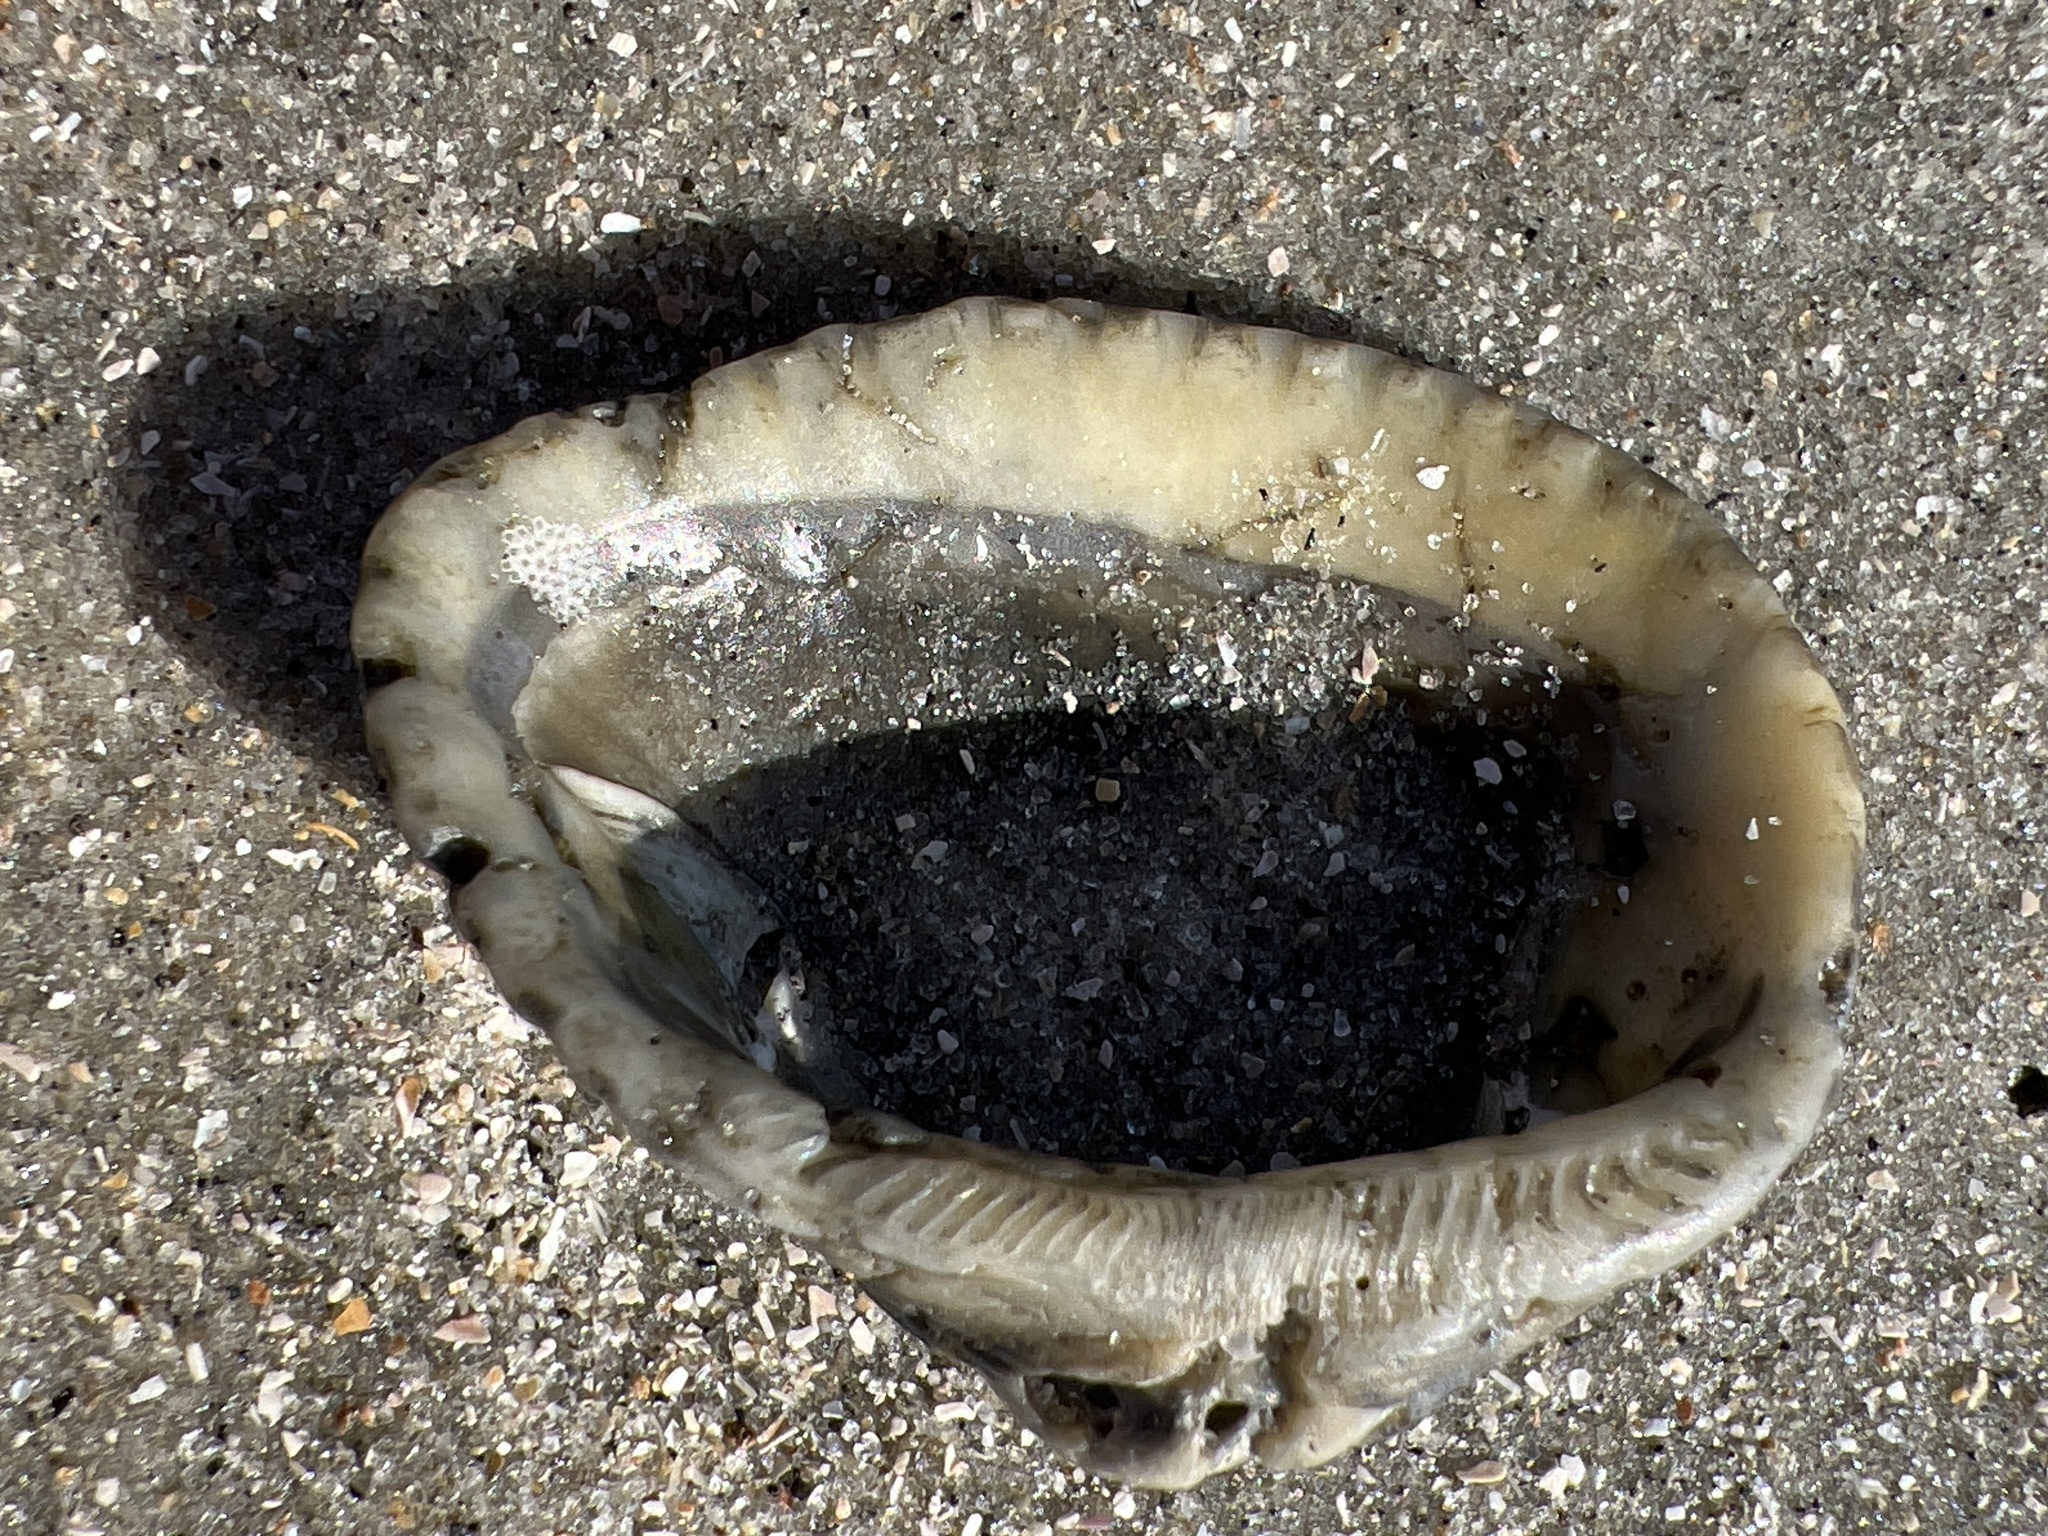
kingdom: Animalia
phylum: Mollusca
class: Bivalvia
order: Arcida
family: Noetiidae
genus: Noetia
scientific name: Noetia ponderosa
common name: Ponderous ark
